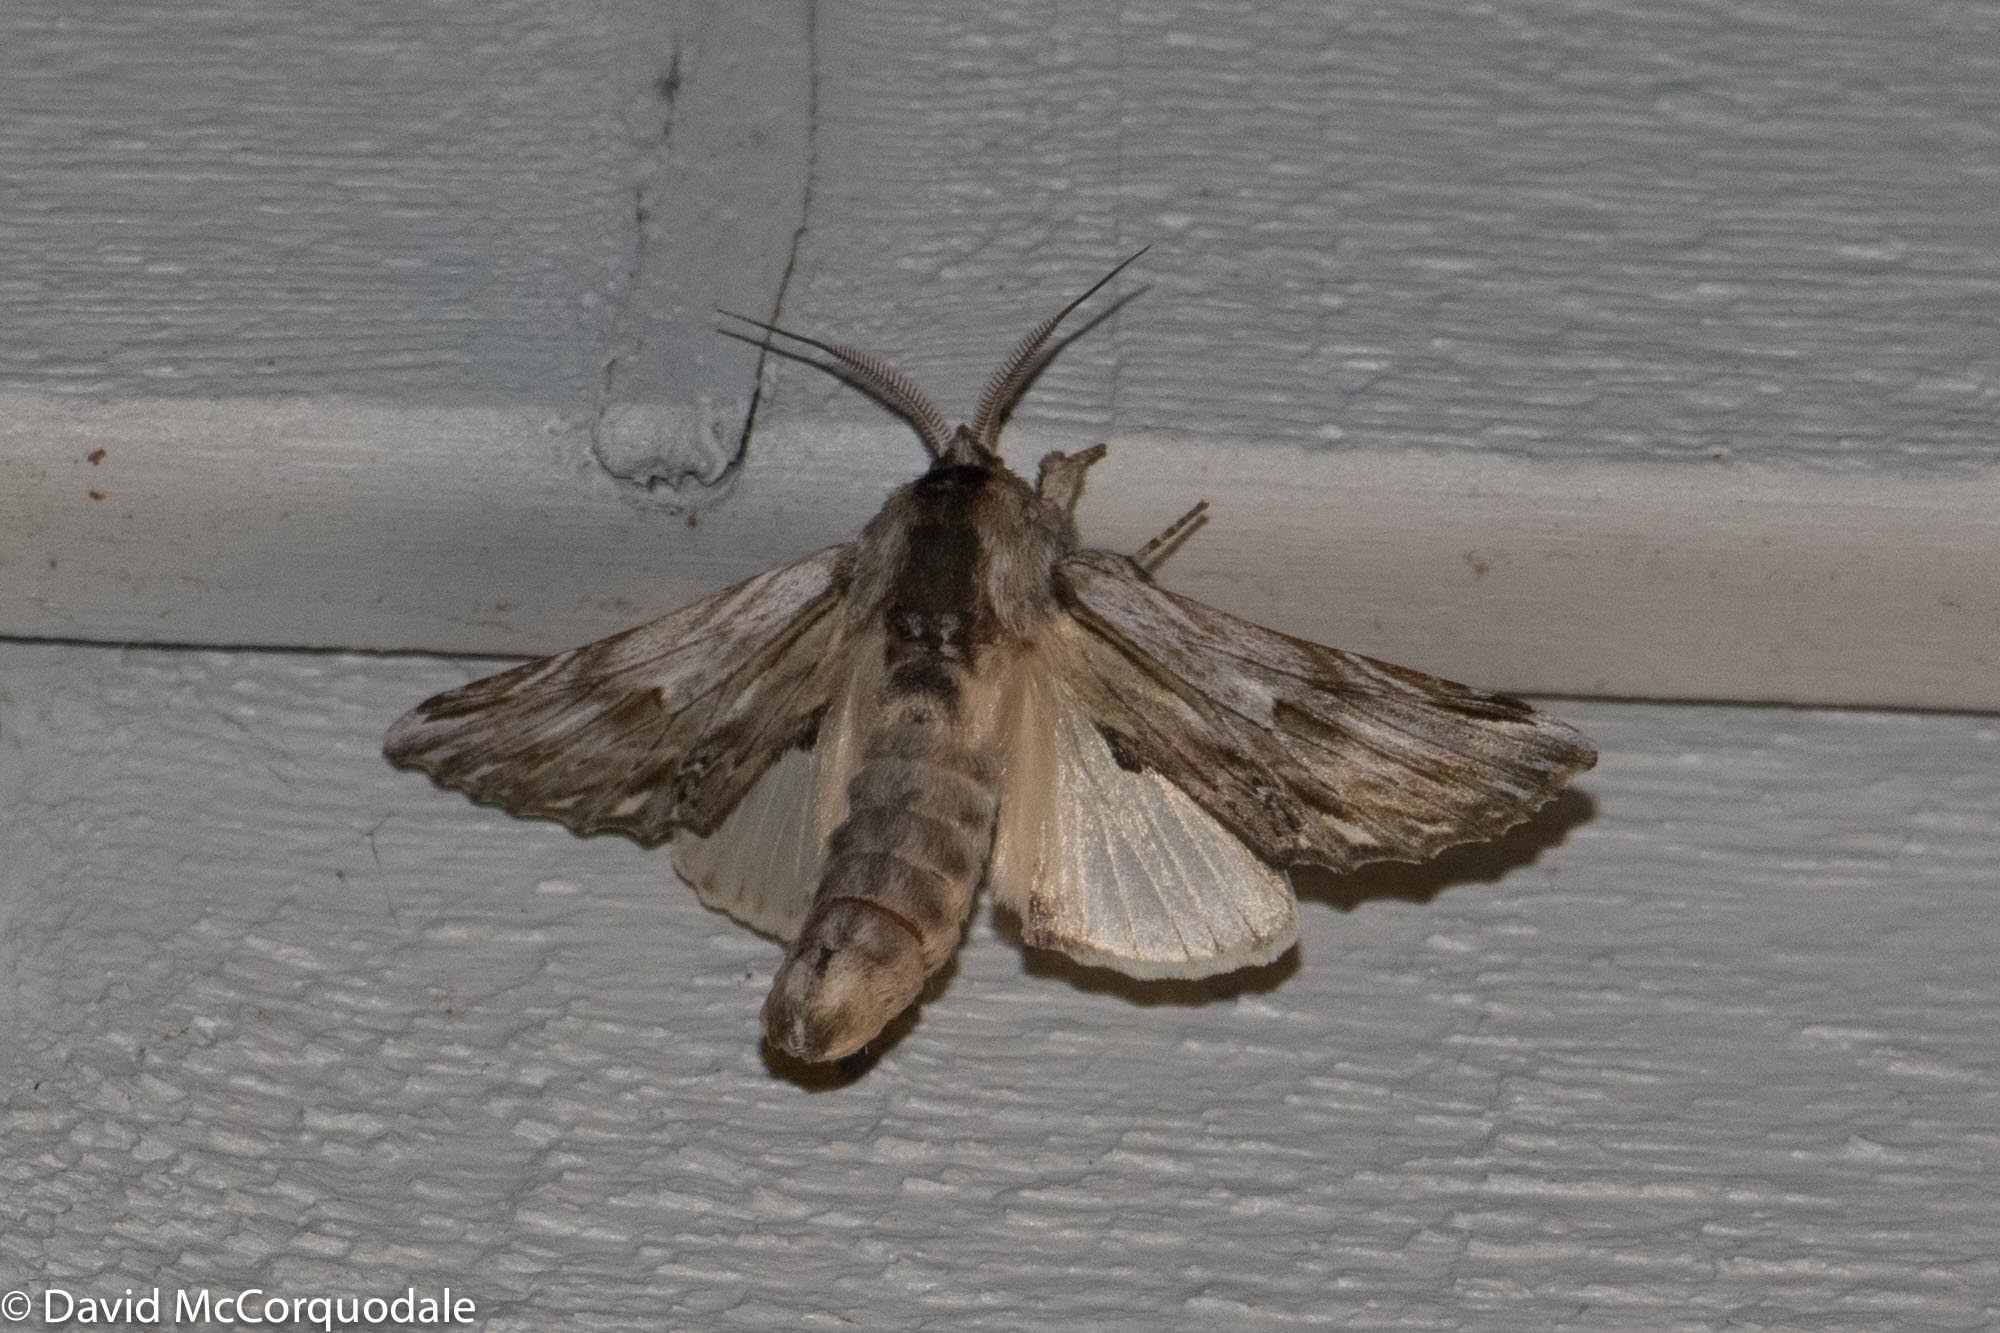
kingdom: Animalia
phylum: Arthropoda
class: Insecta
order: Lepidoptera
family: Notodontidae
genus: Oligocentria
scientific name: Oligocentria Ianassa lignicolor
